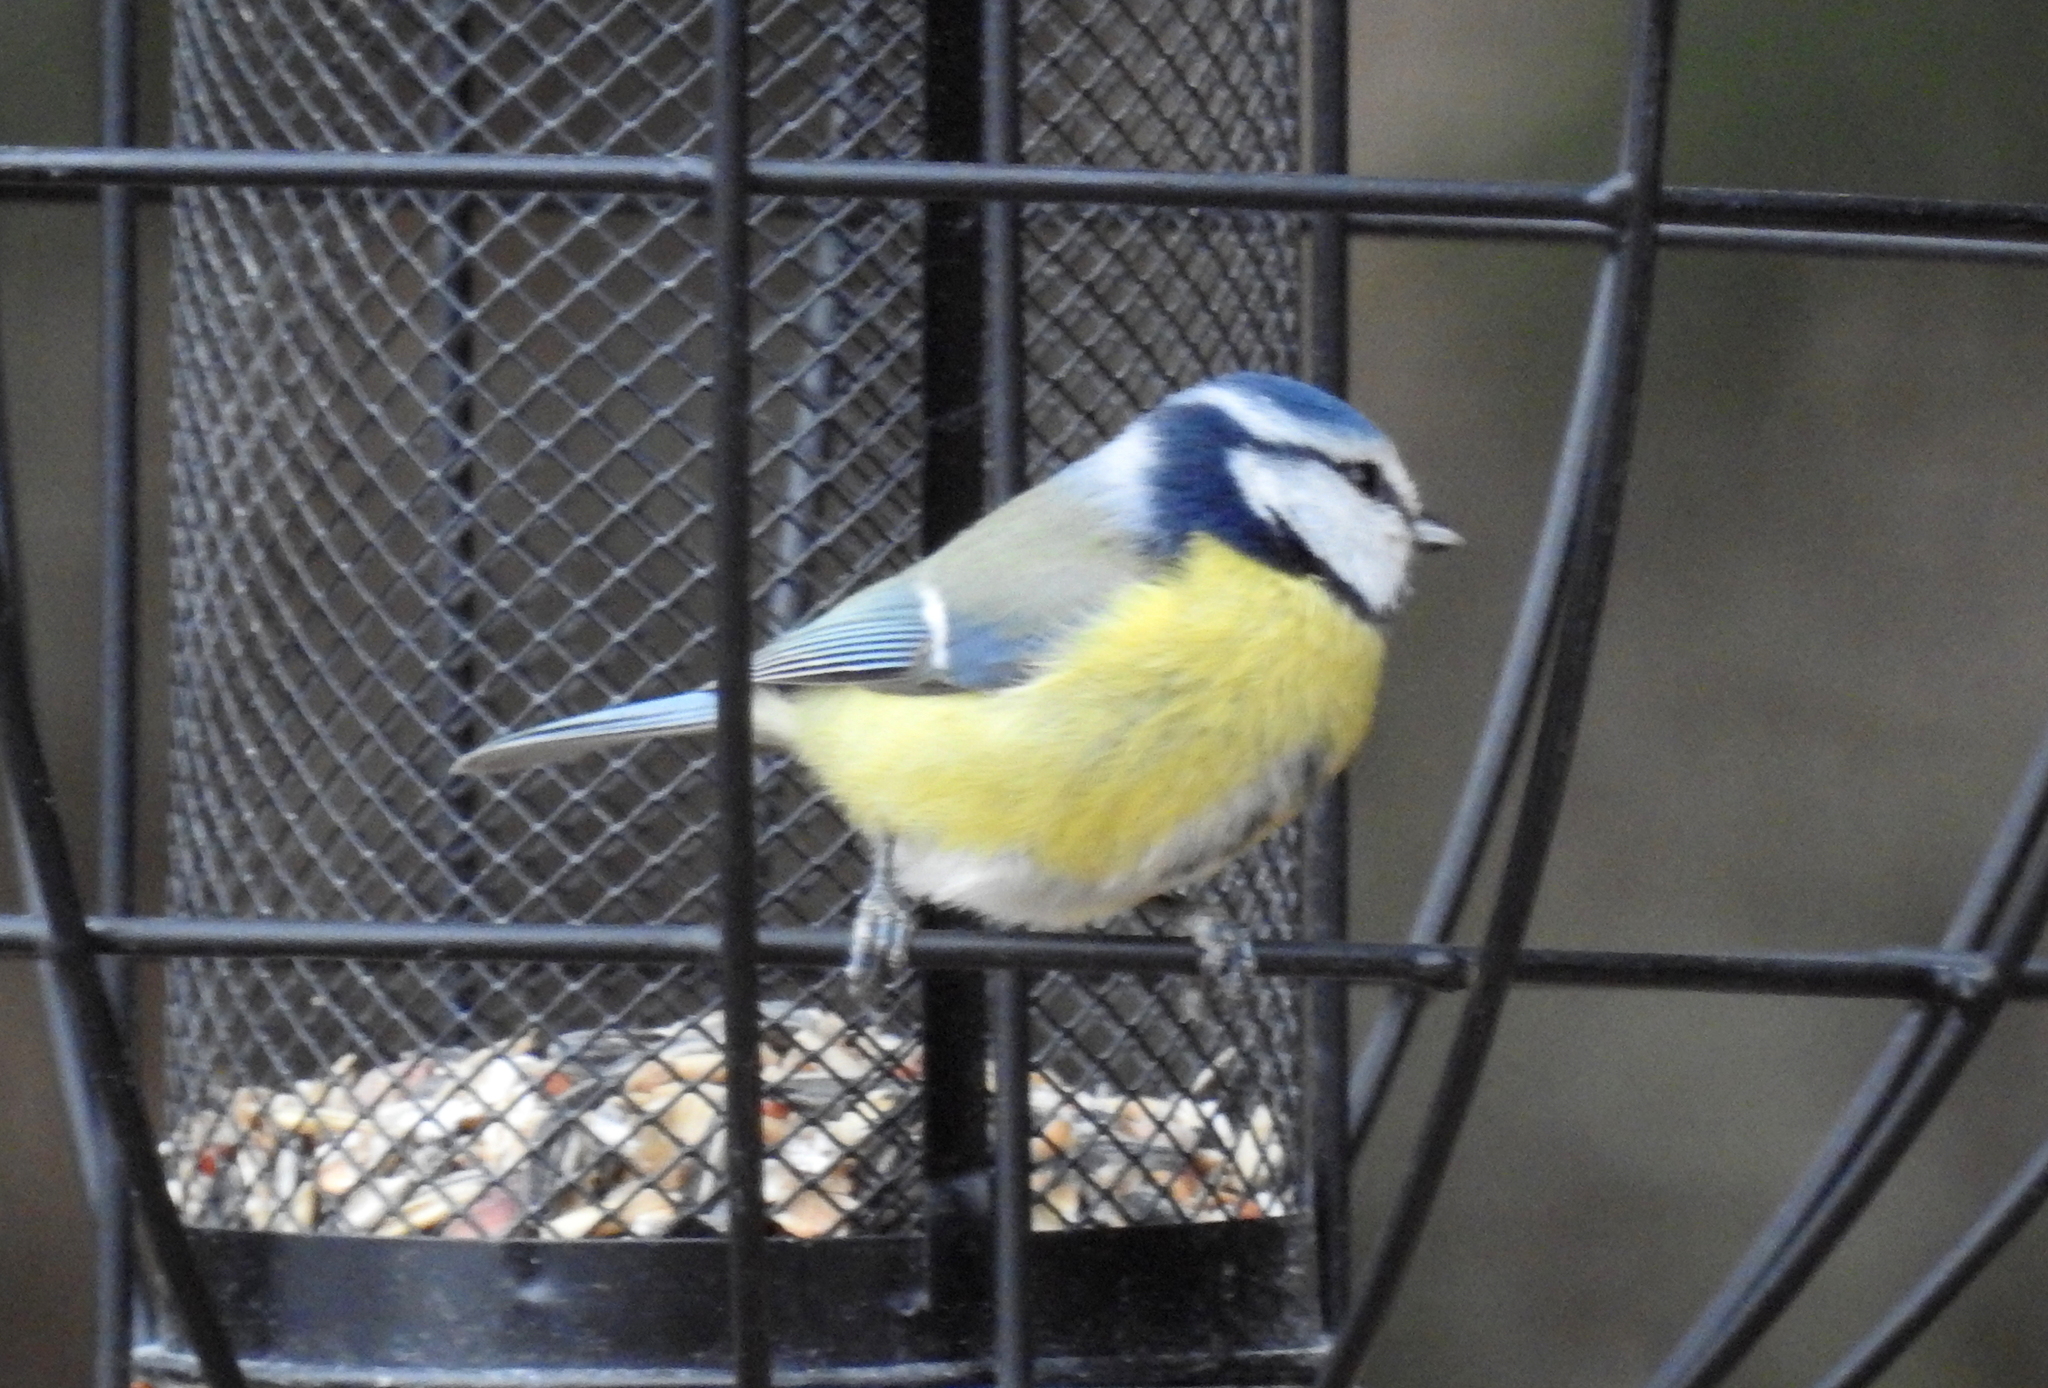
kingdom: Animalia
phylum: Chordata
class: Aves
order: Passeriformes
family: Paridae
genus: Cyanistes
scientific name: Cyanistes caeruleus
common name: Eurasian blue tit
